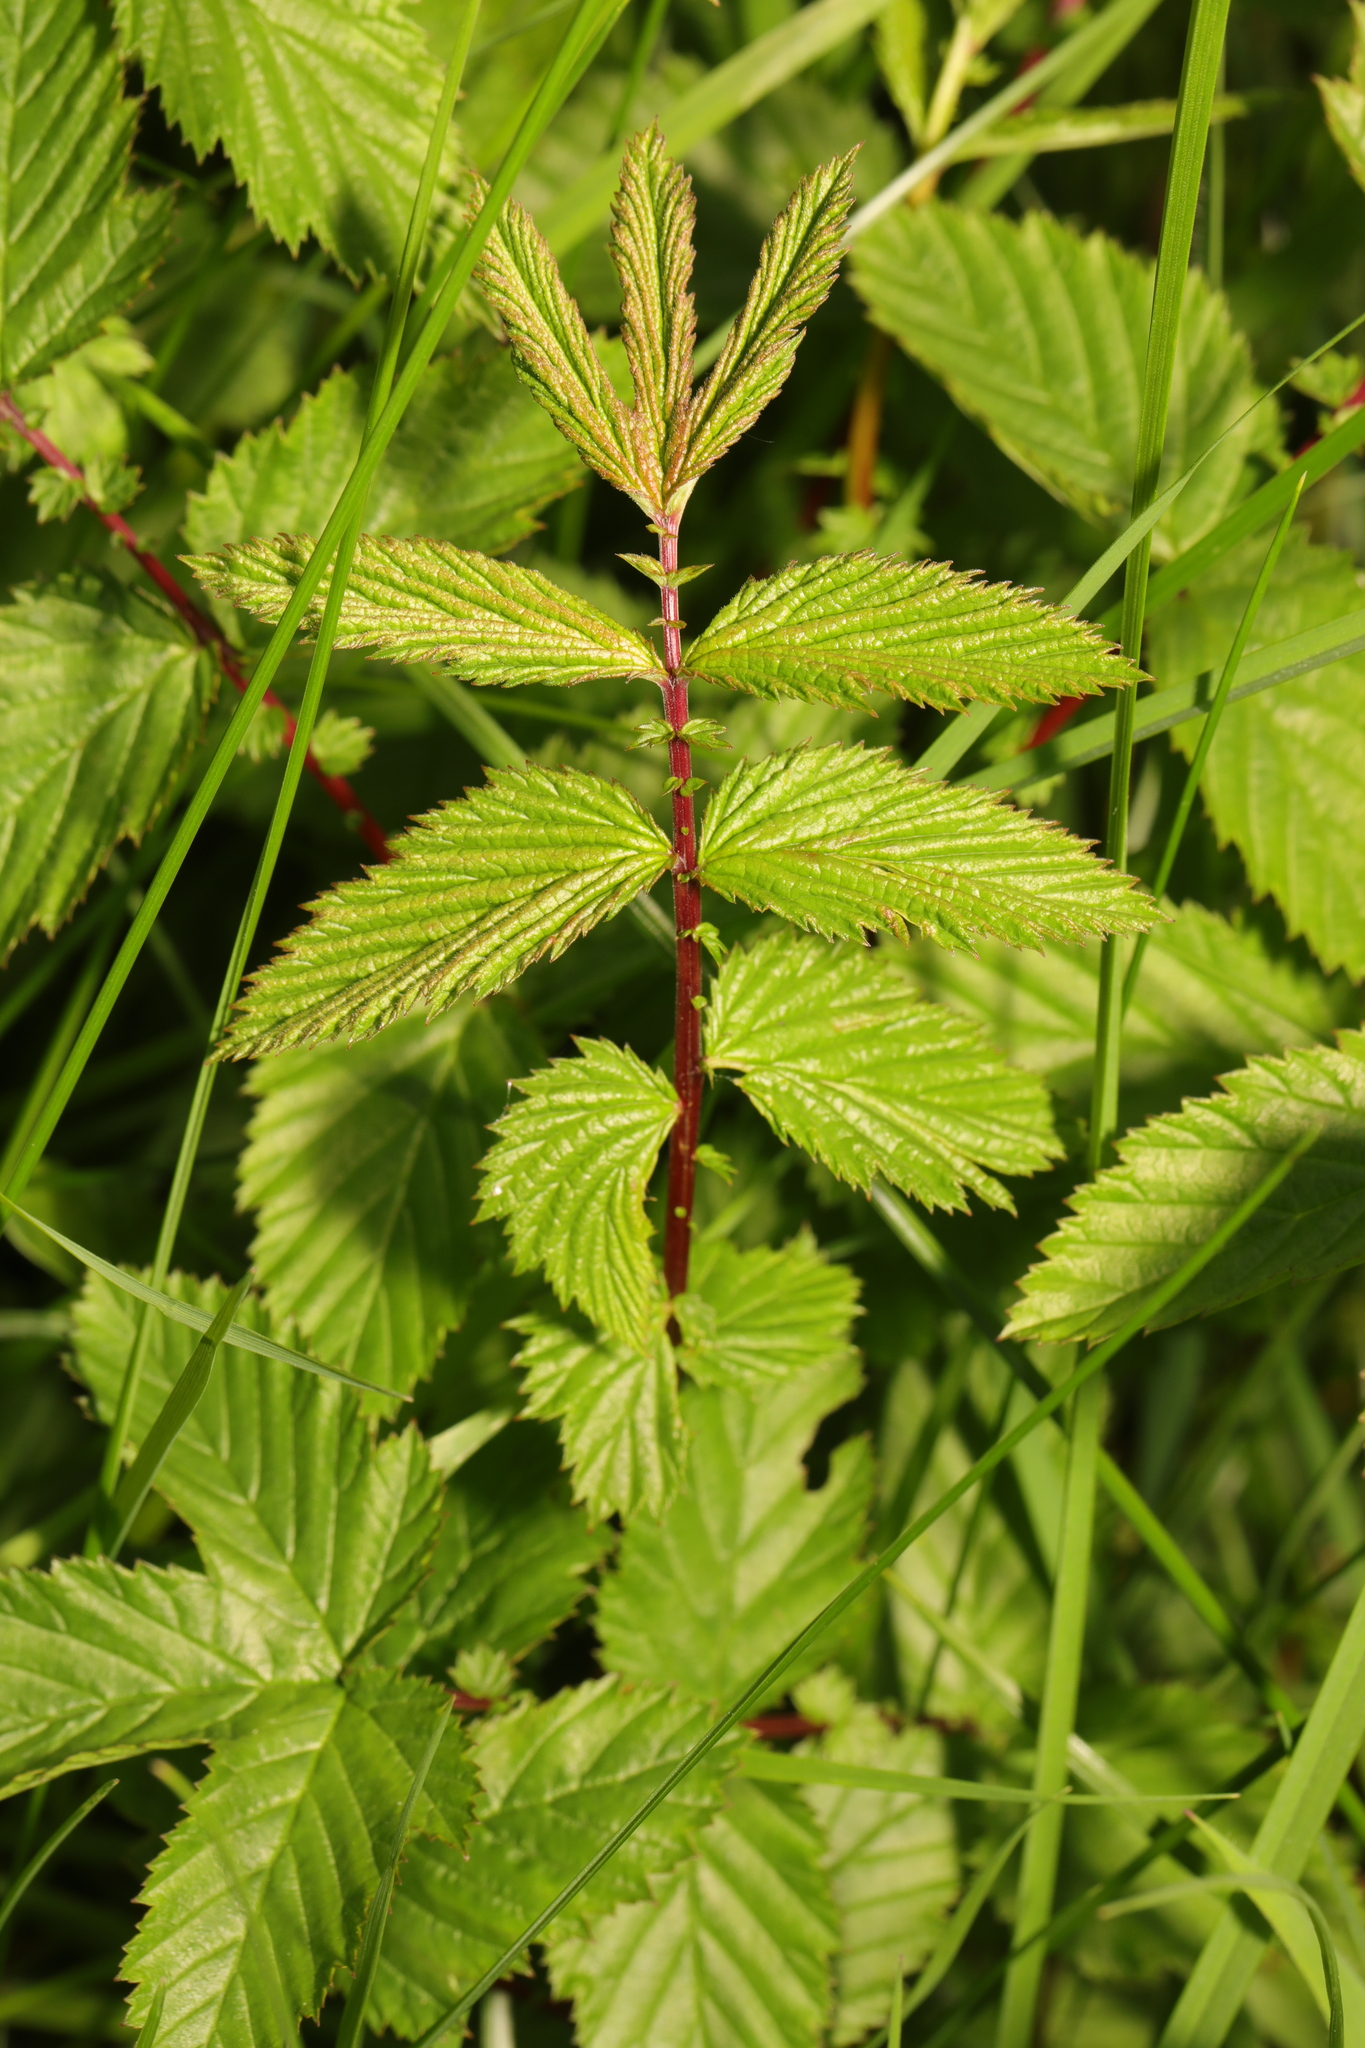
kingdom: Plantae
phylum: Tracheophyta
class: Magnoliopsida
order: Rosales
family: Rosaceae
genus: Filipendula
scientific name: Filipendula ulmaria
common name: Meadowsweet
